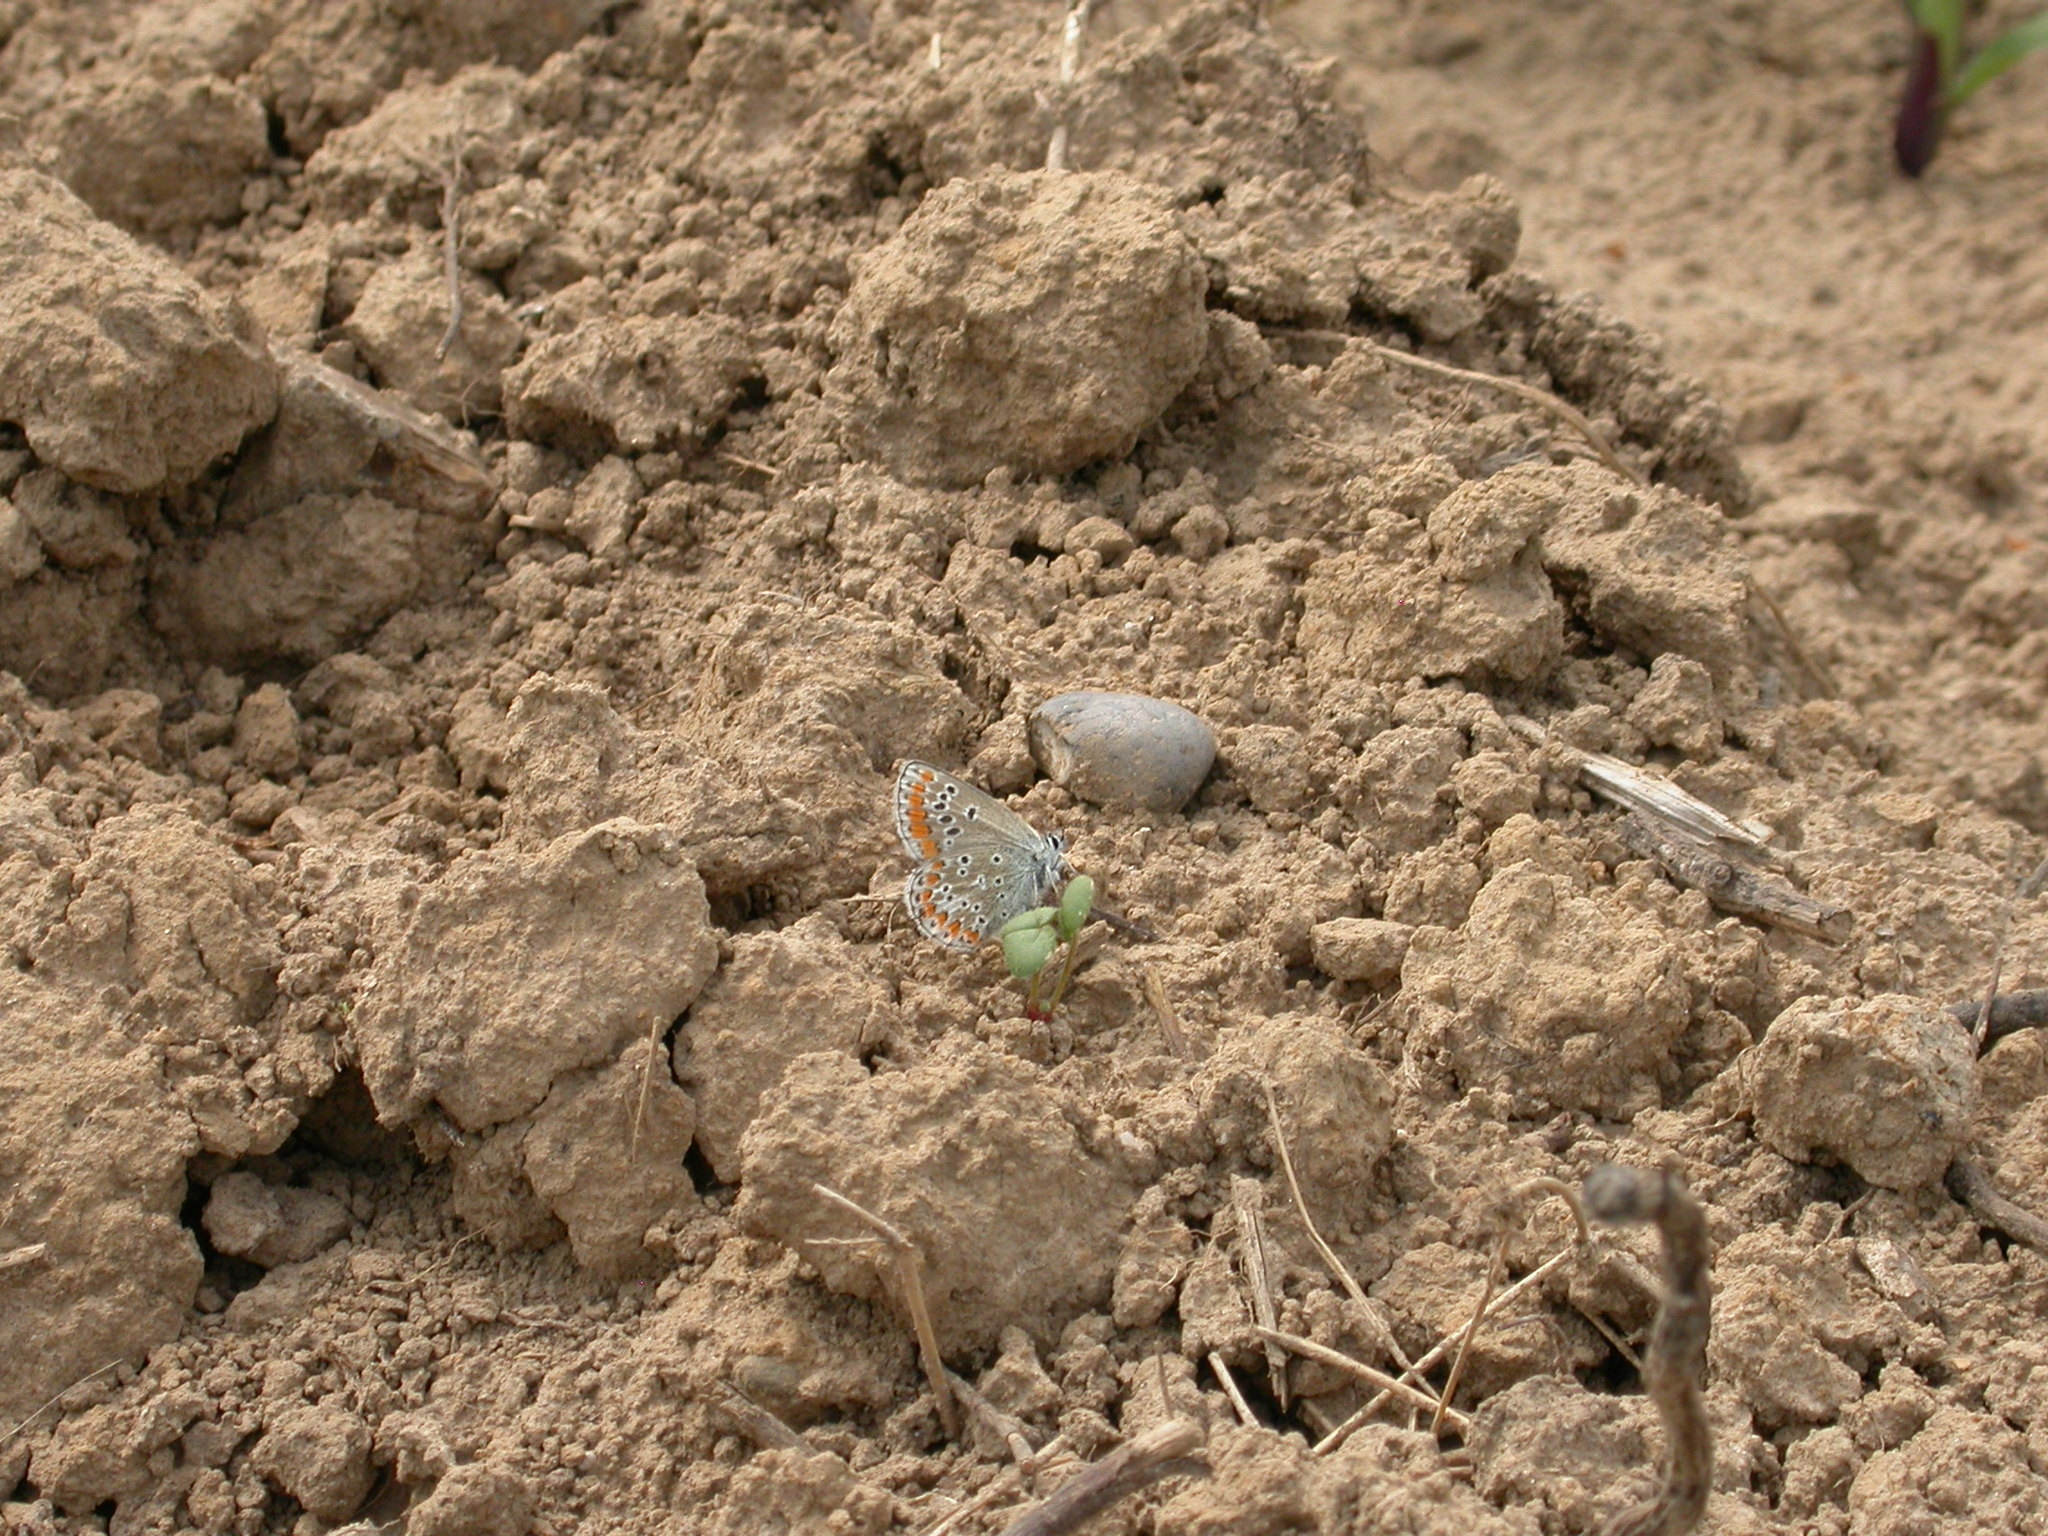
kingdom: Animalia
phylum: Arthropoda
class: Insecta
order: Lepidoptera
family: Lycaenidae
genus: Aricia
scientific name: Aricia agestis
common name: Brown argus
